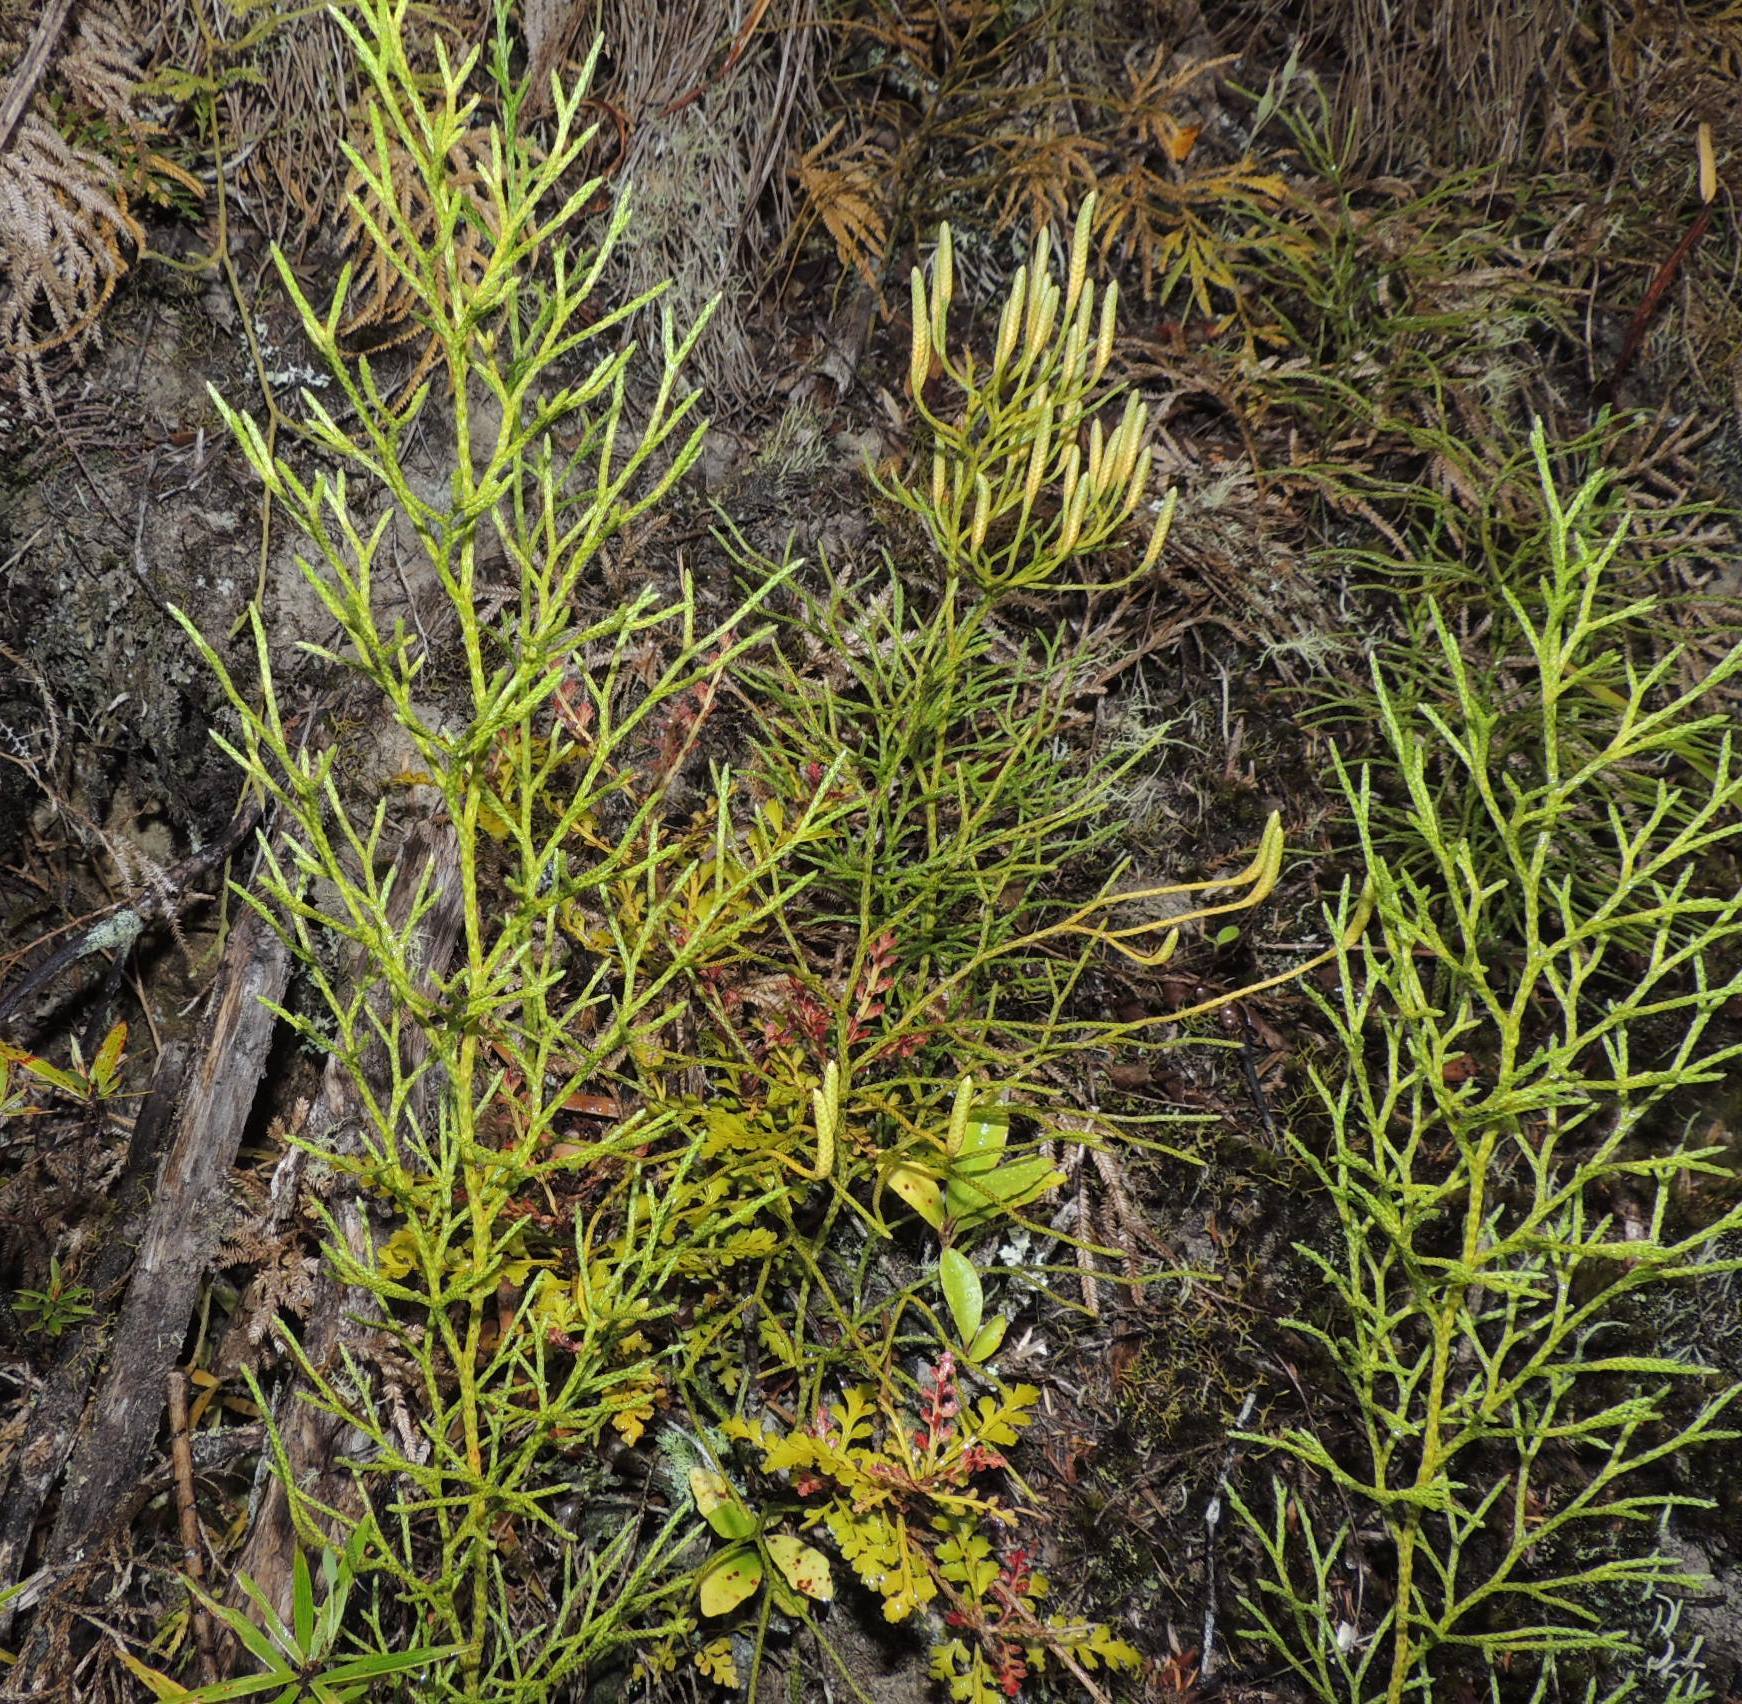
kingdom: Plantae
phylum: Tracheophyta
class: Lycopodiopsida
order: Lycopodiales
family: Lycopodiaceae
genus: Pseudolycopodium
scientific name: Pseudolycopodium densum
